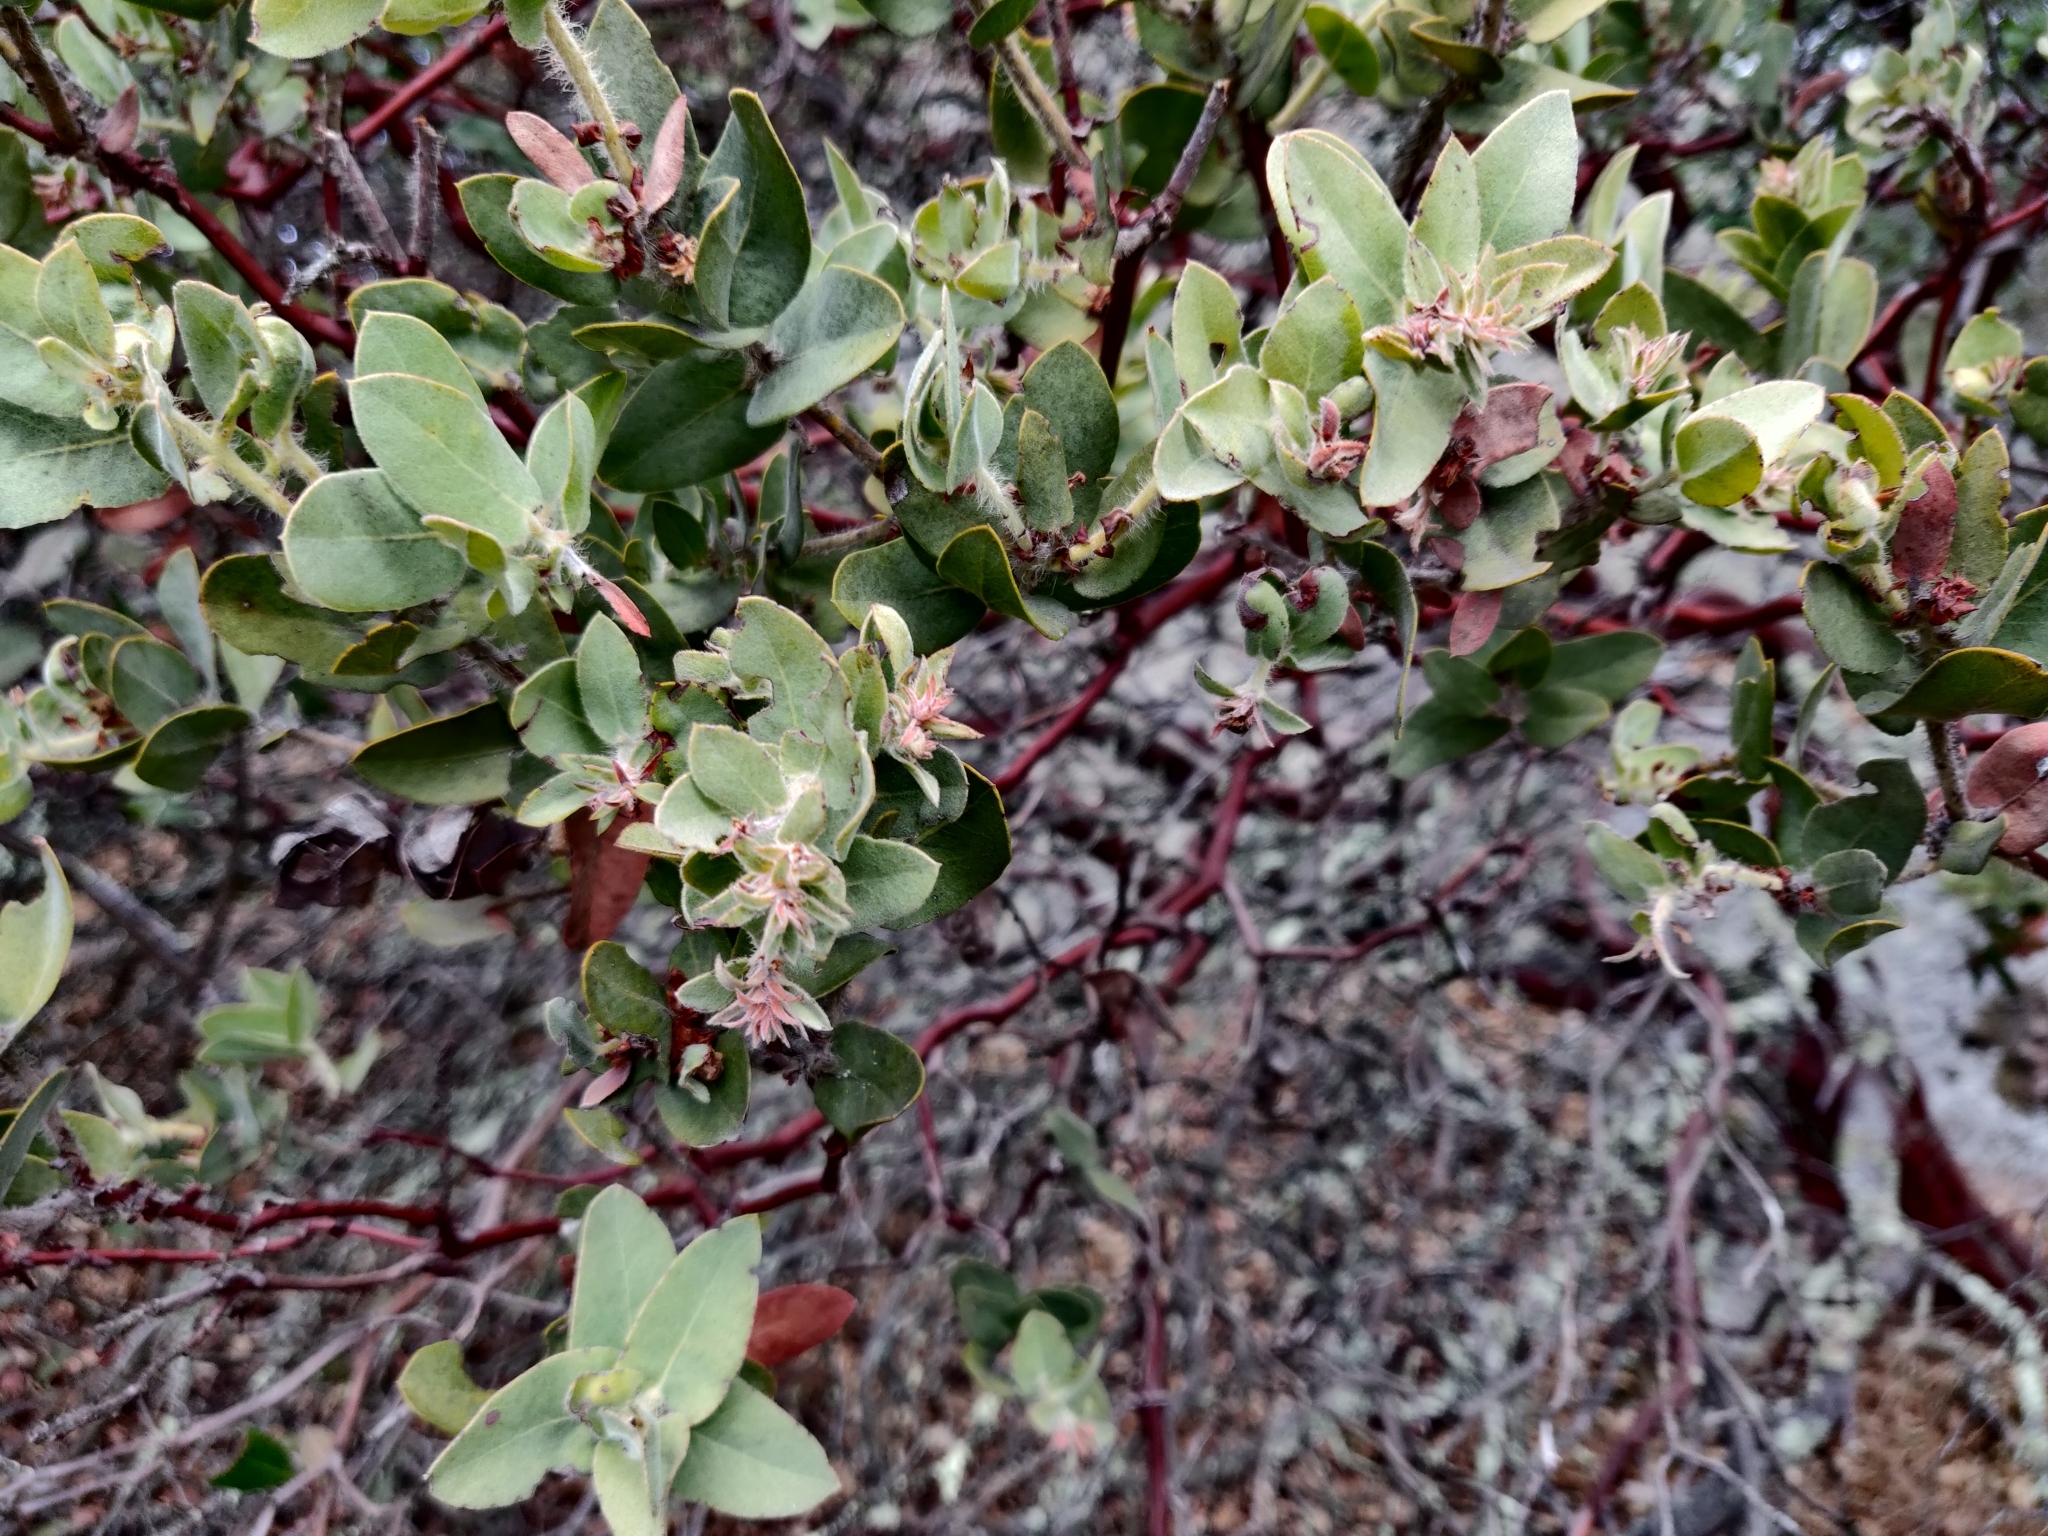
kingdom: Plantae
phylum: Tracheophyta
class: Magnoliopsida
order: Ericales
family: Ericaceae
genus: Arctostaphylos
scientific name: Arctostaphylos auriculata
